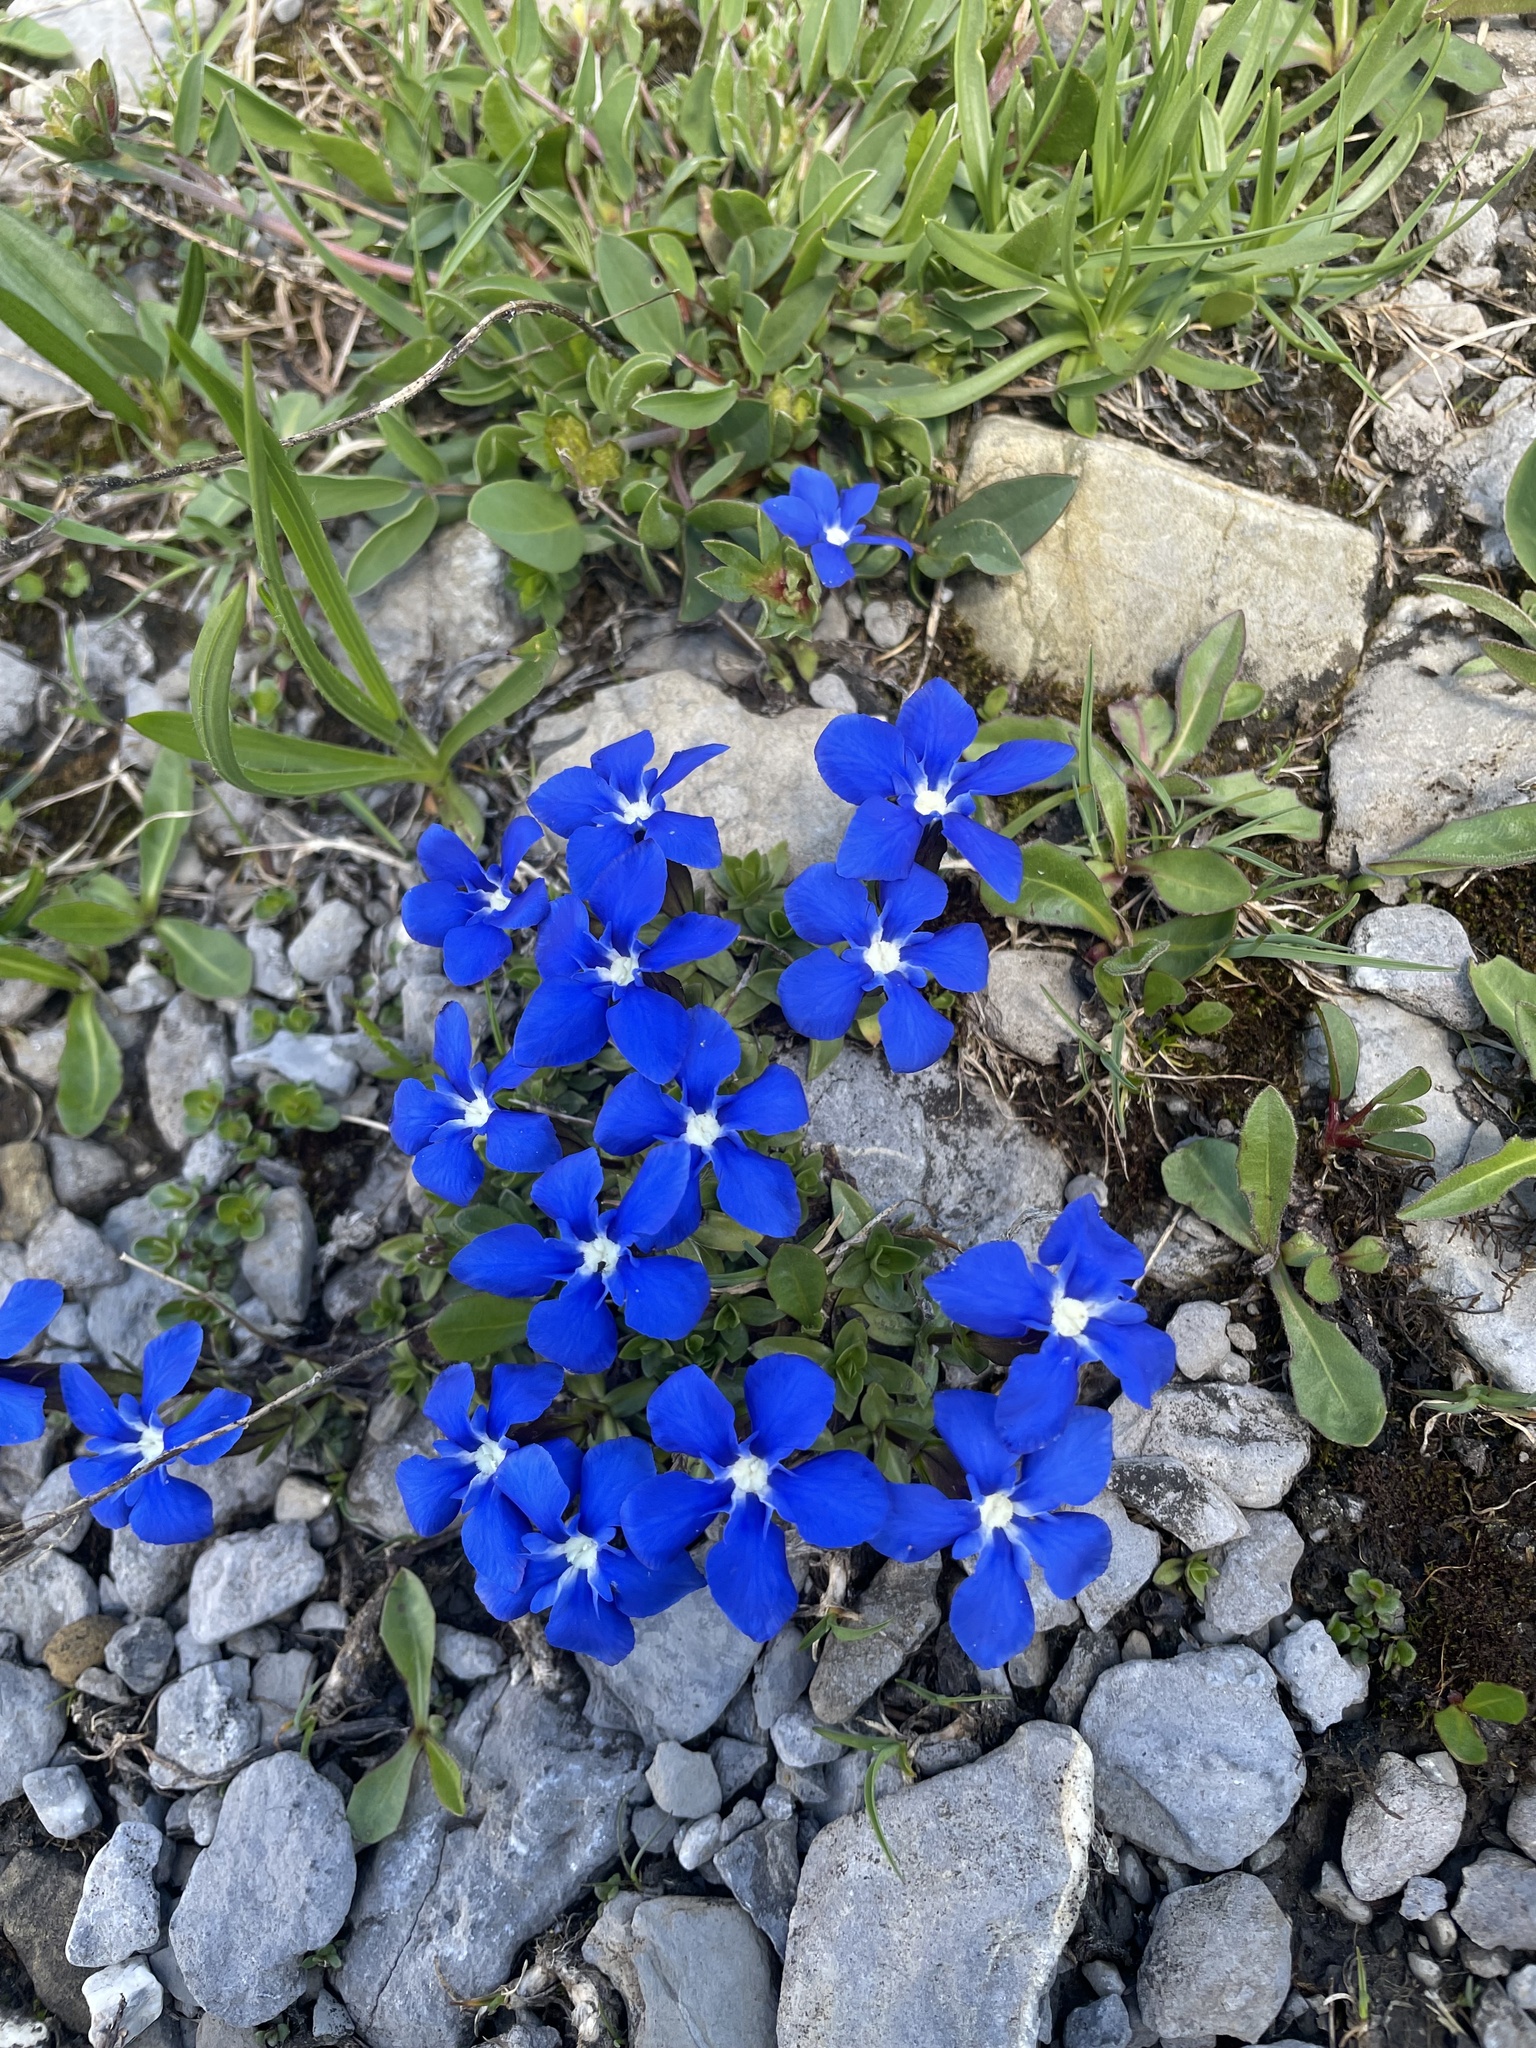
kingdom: Plantae
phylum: Tracheophyta
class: Magnoliopsida
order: Gentianales
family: Gentianaceae
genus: Gentiana
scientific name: Gentiana verna
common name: Spring gentian
